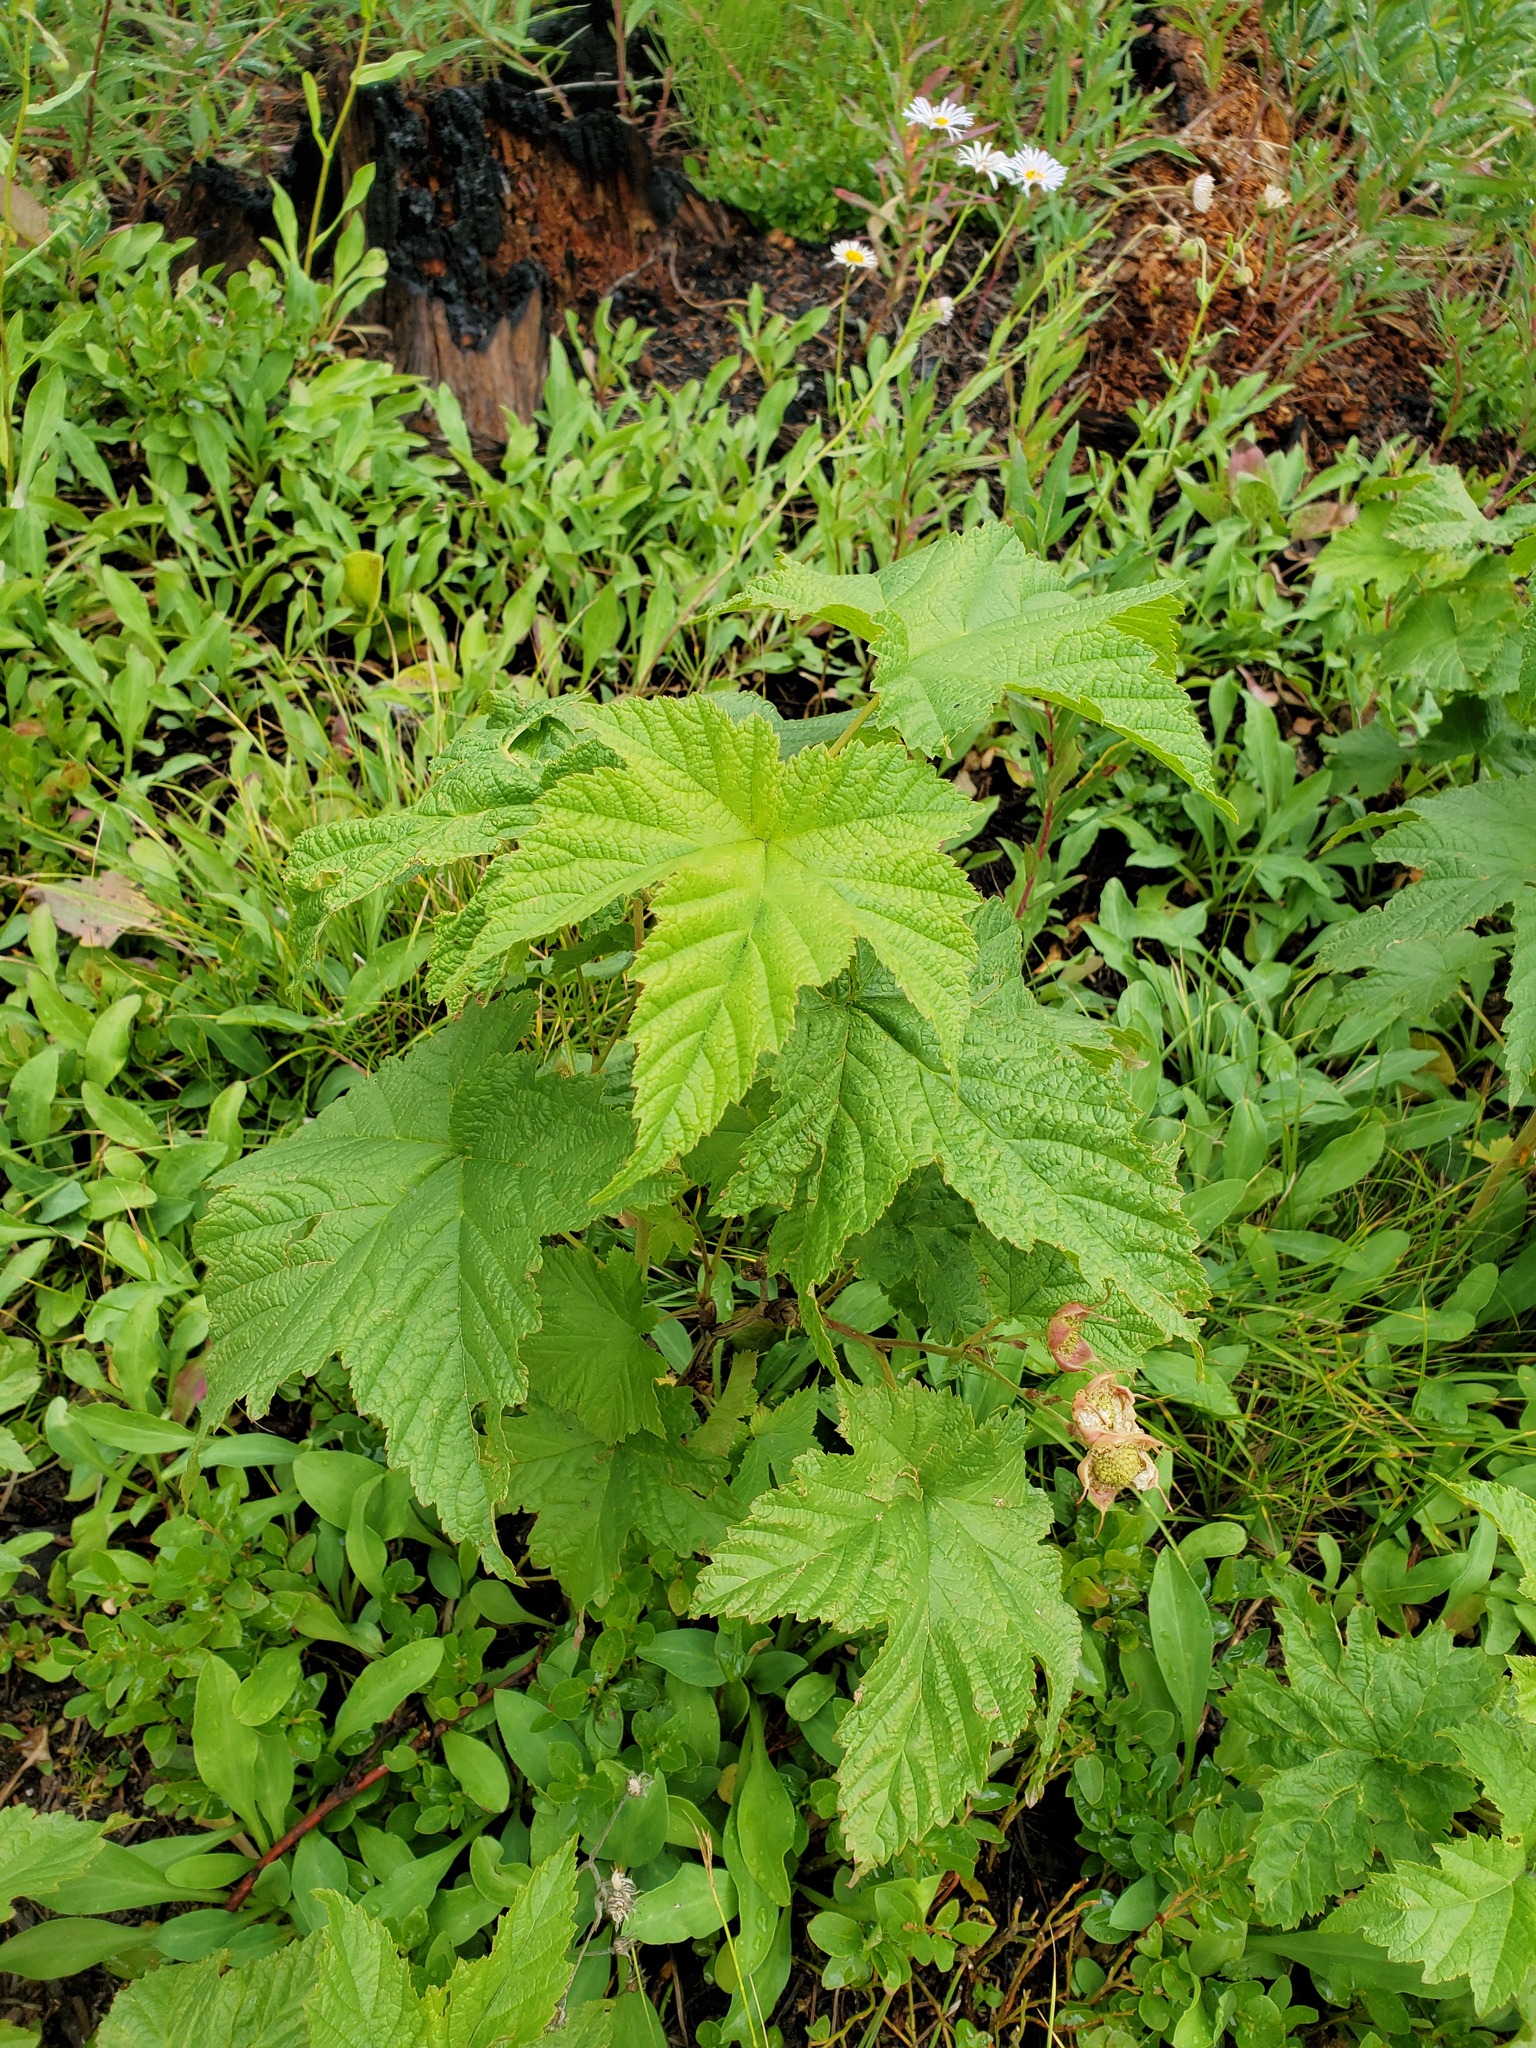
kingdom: Plantae
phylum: Tracheophyta
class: Magnoliopsida
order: Rosales
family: Rosaceae
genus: Rubus
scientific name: Rubus parviflorus
